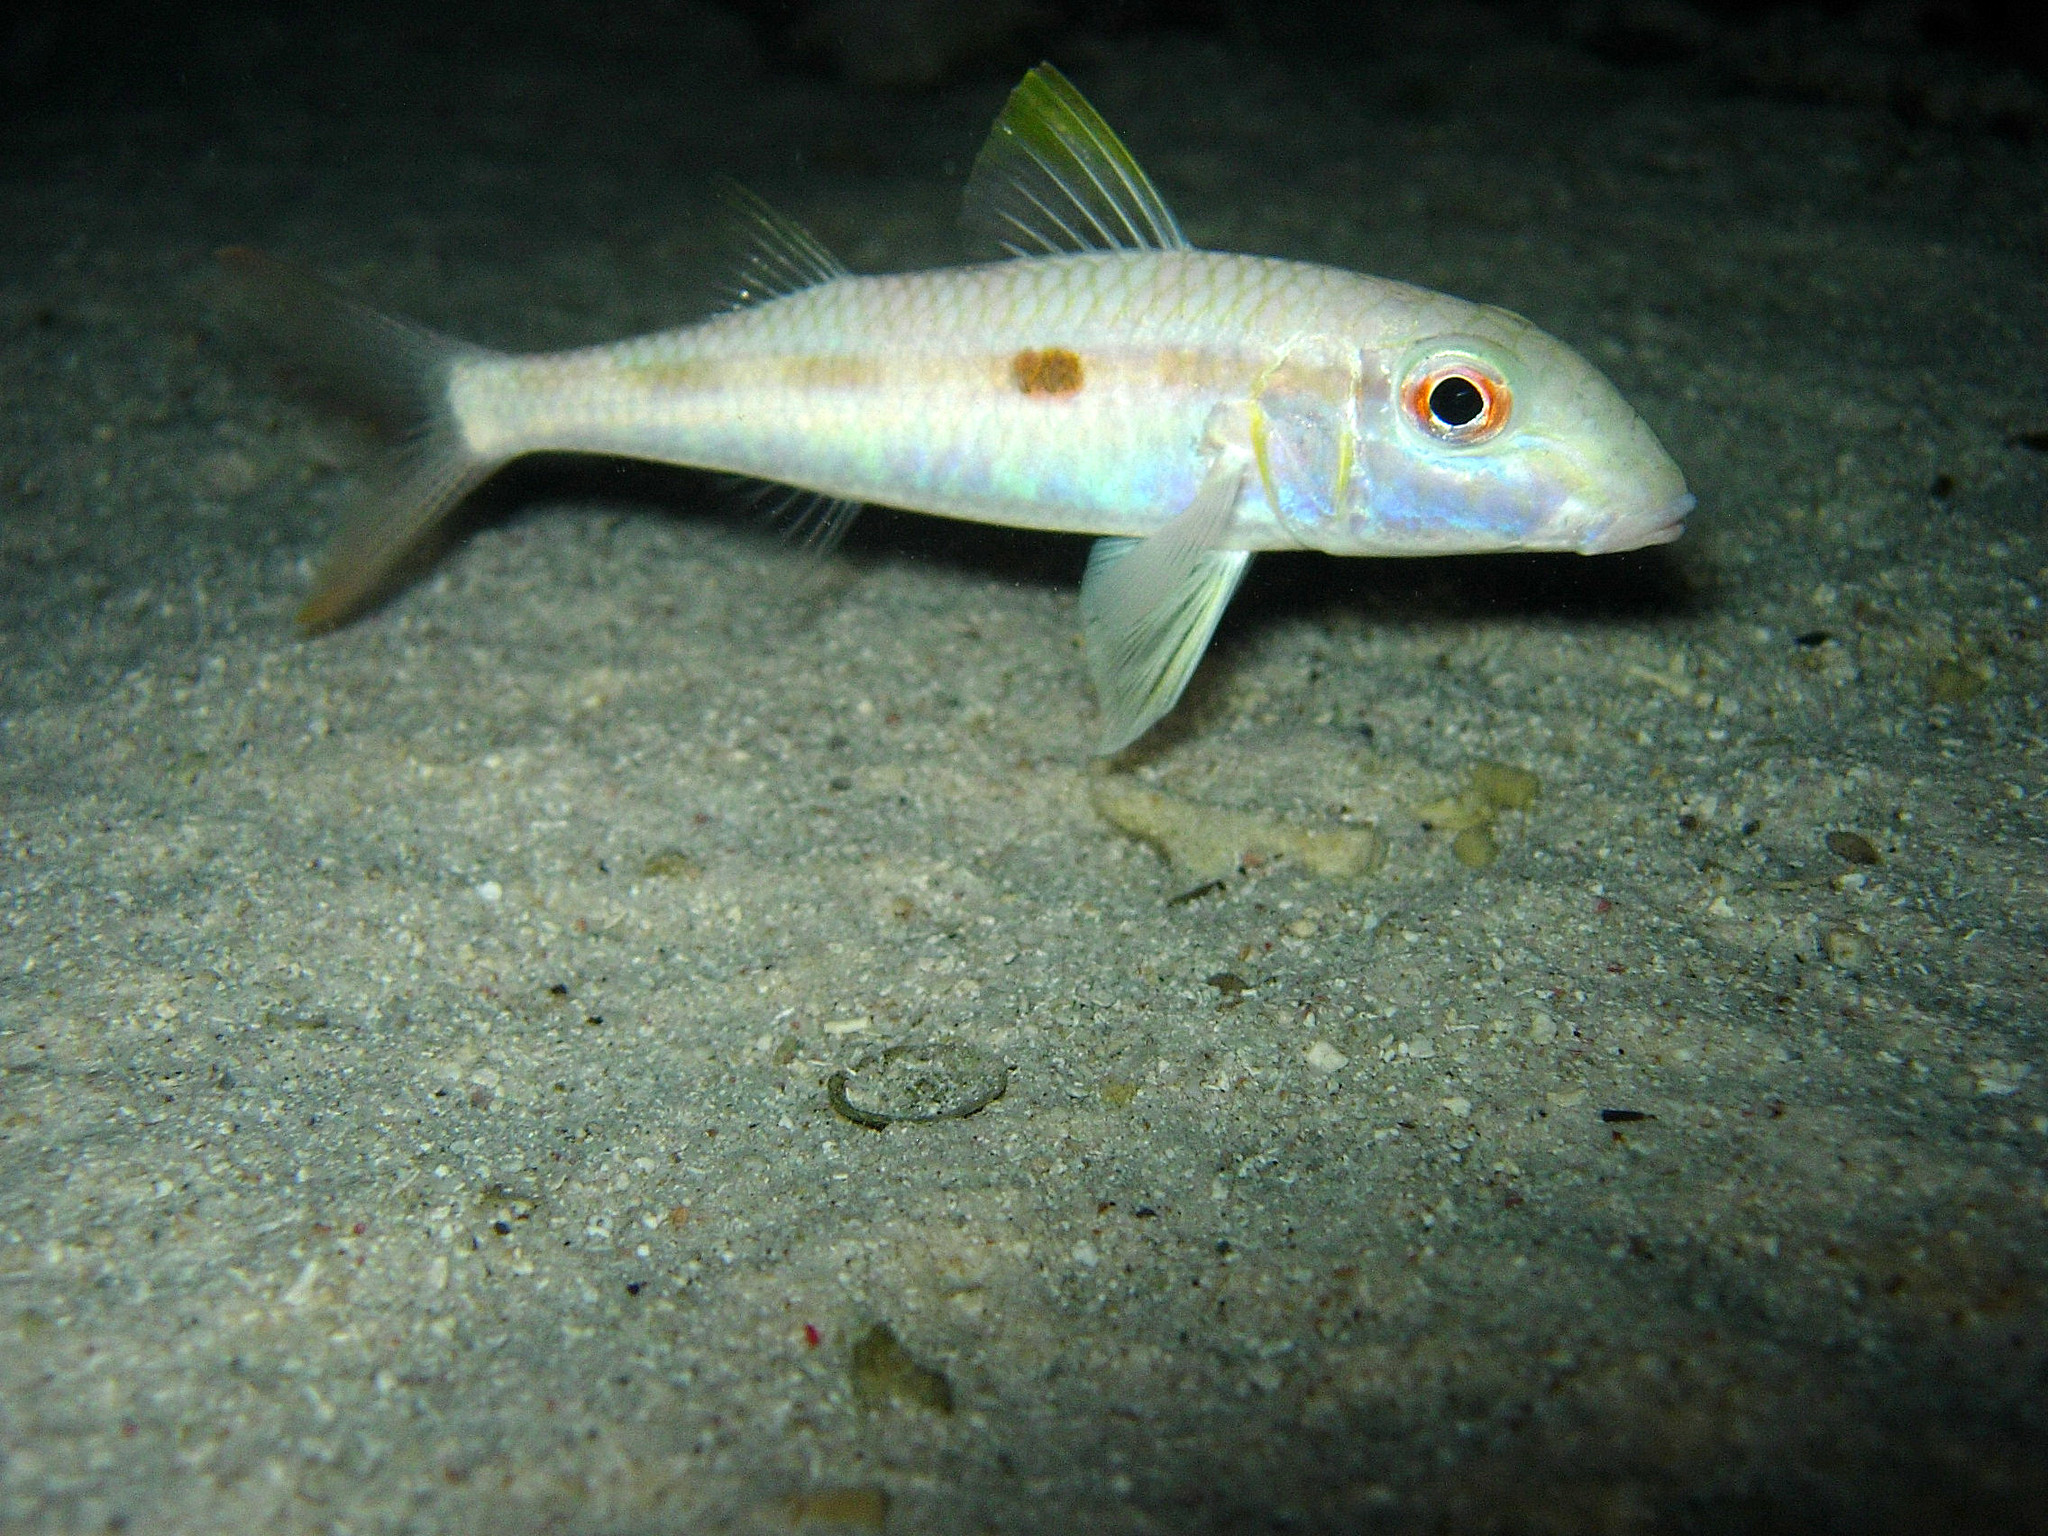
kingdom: Animalia
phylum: Chordata
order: Perciformes
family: Mullidae
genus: Mulloidichthys
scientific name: Mulloidichthys flavolineatus
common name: Yellowstripe goatfish
